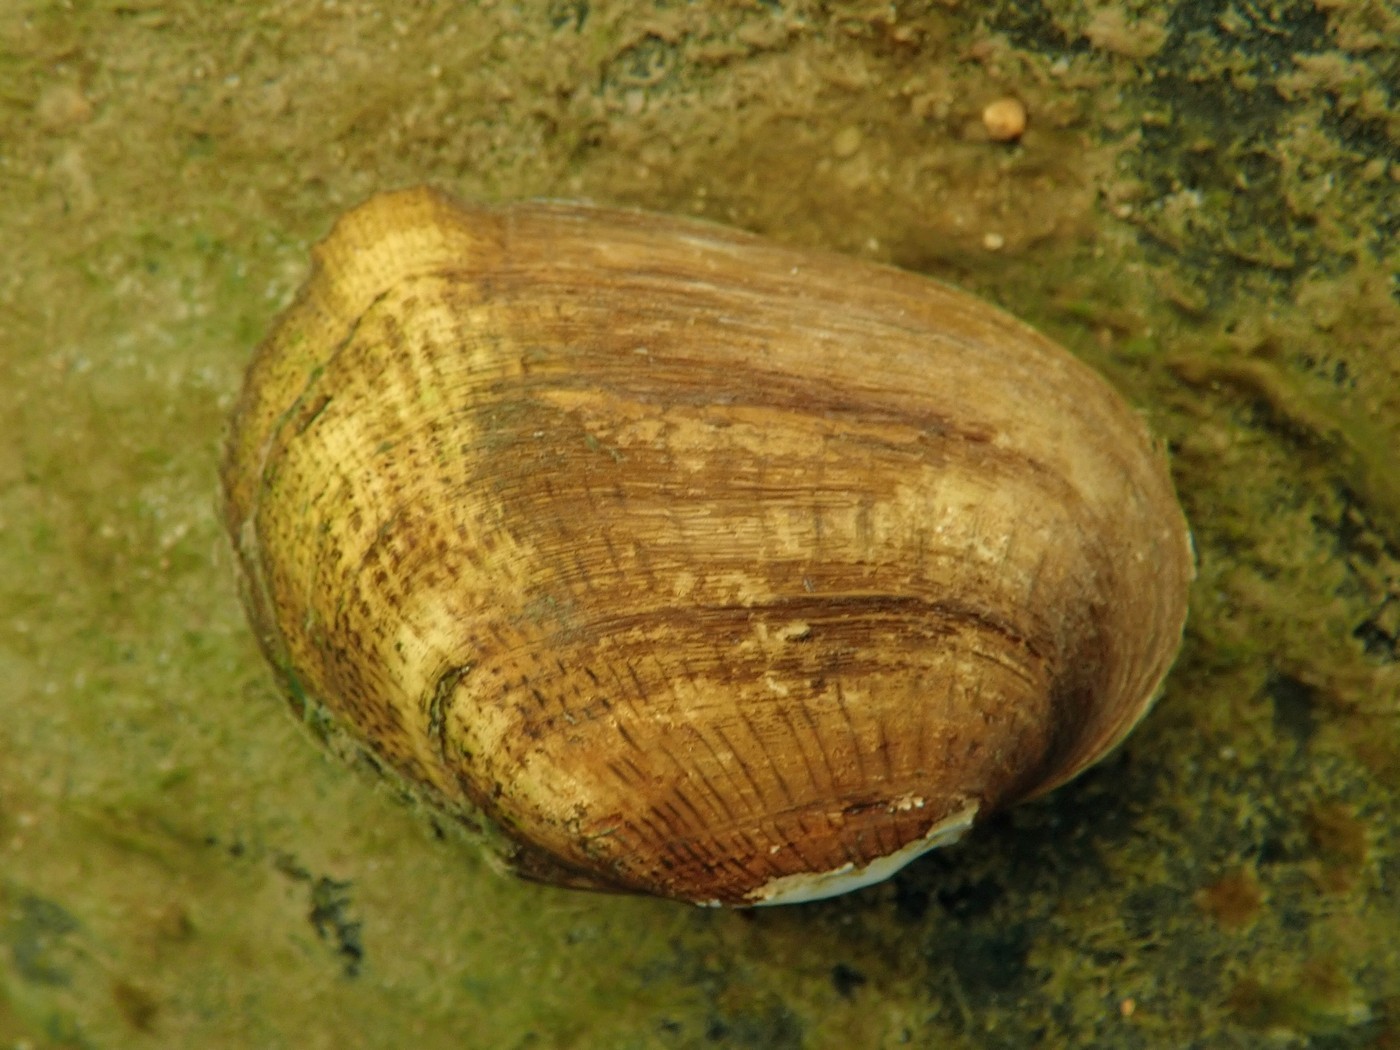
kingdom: Animalia
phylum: Mollusca
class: Bivalvia
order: Unionida
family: Unionidae
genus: Epioblasma
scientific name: Epioblasma brevidens
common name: Cumberlandian combshell
